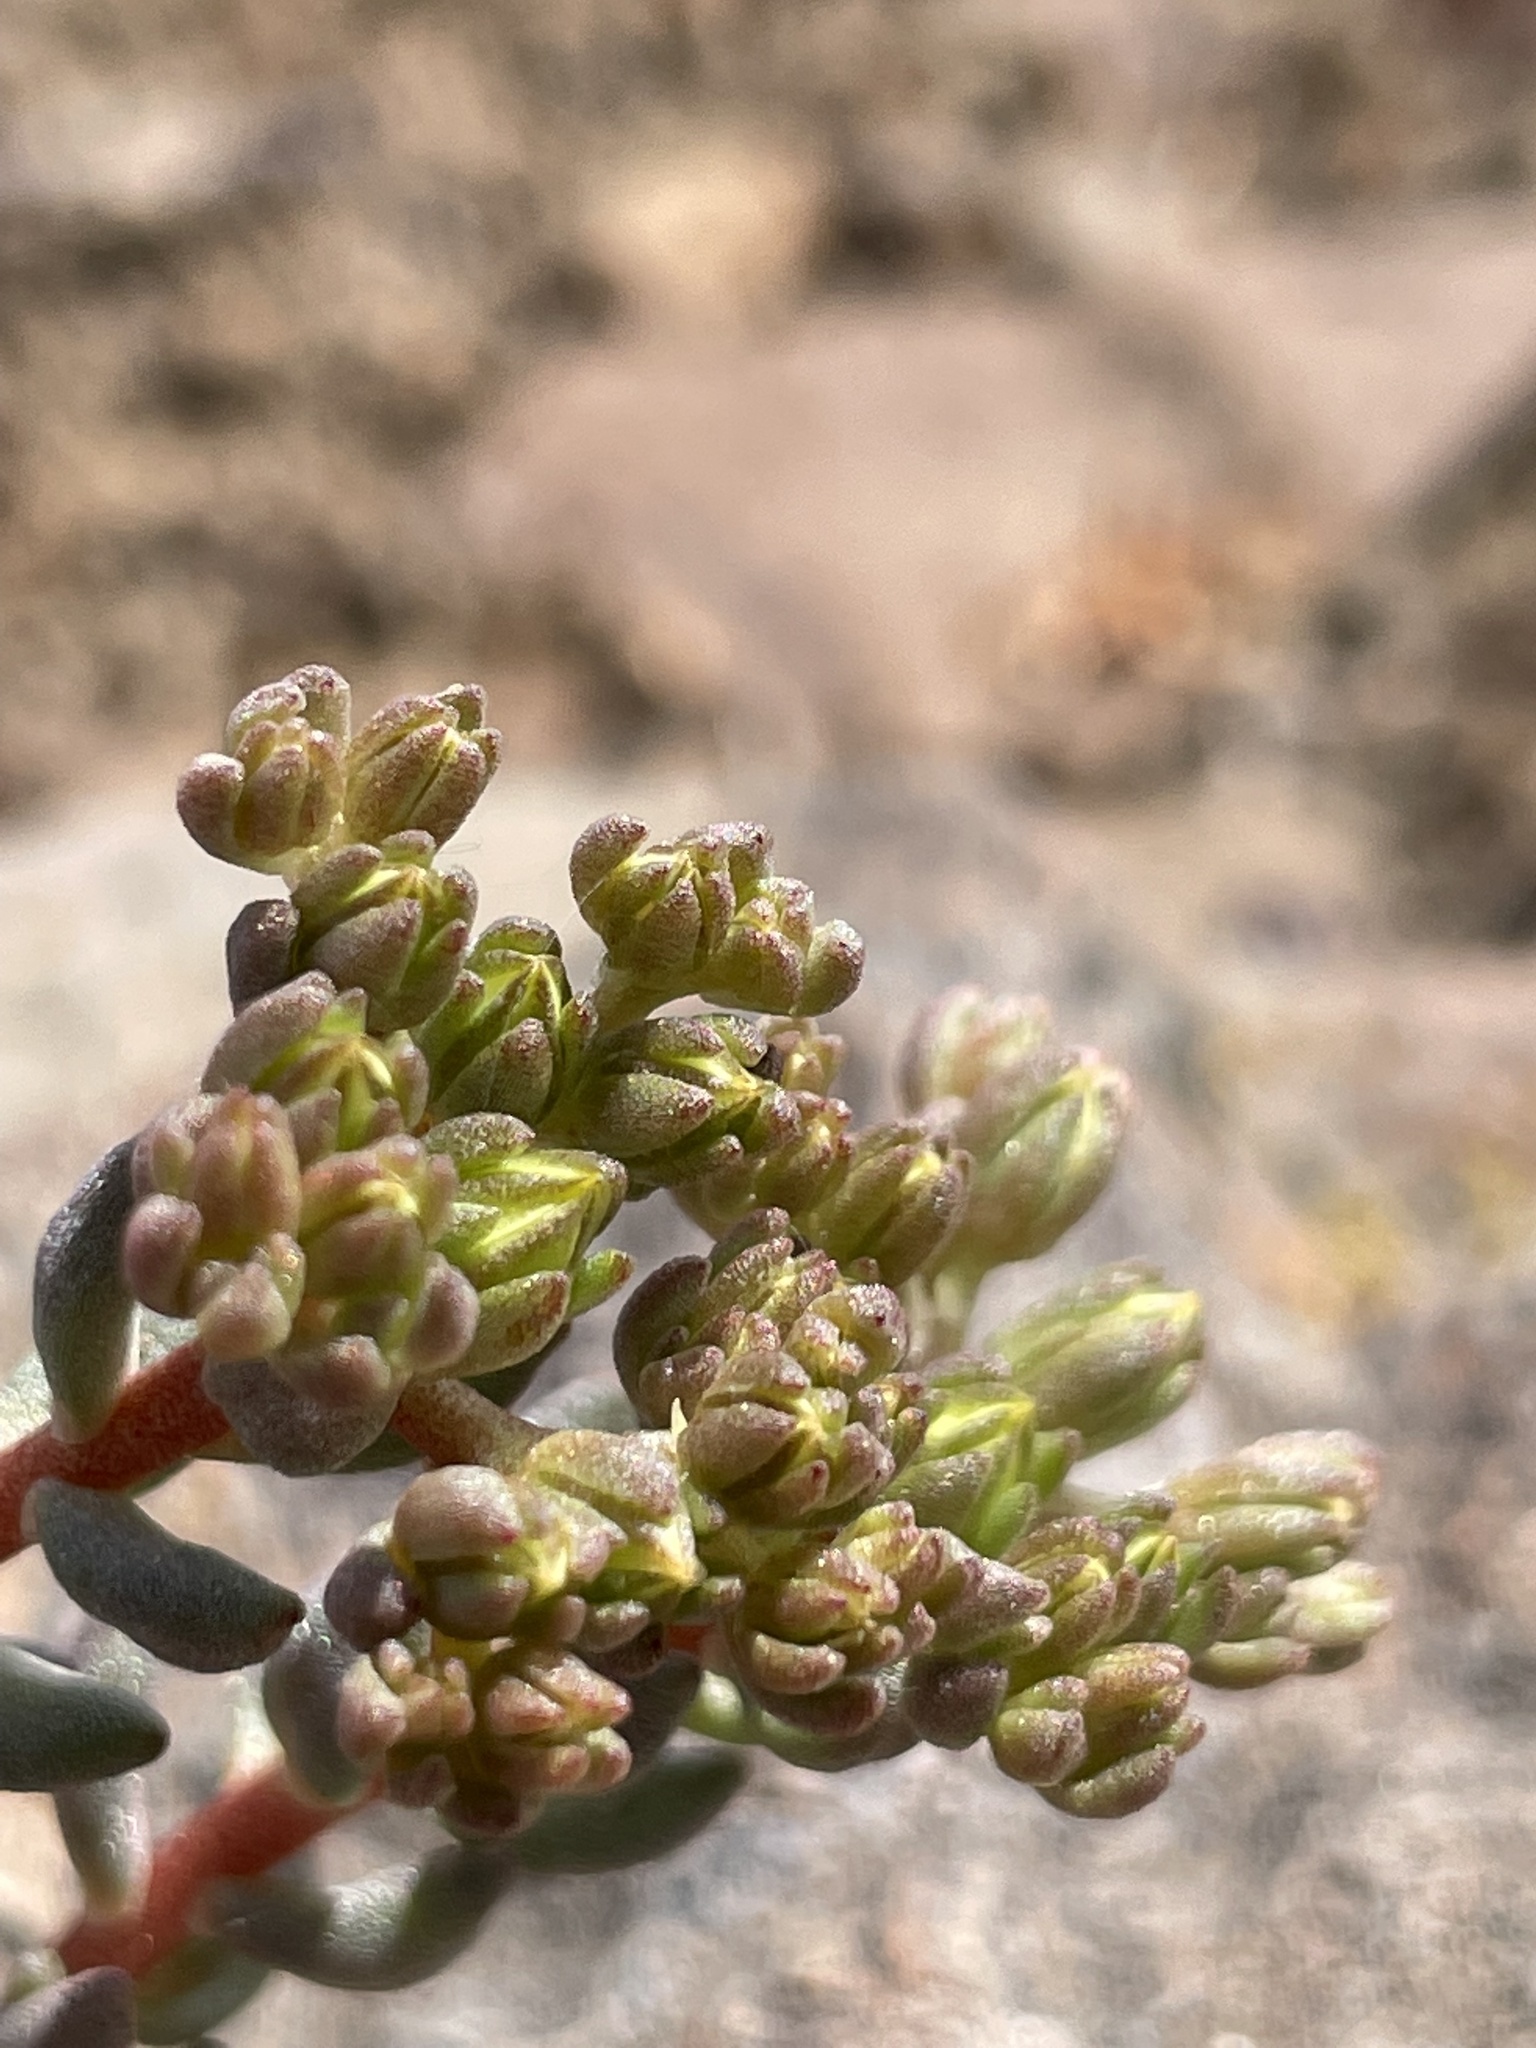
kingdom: Plantae
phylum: Tracheophyta
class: Magnoliopsida
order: Saxifragales
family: Crassulaceae
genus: Sedum
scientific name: Sedum lanceolatum
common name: Common stonecrop
